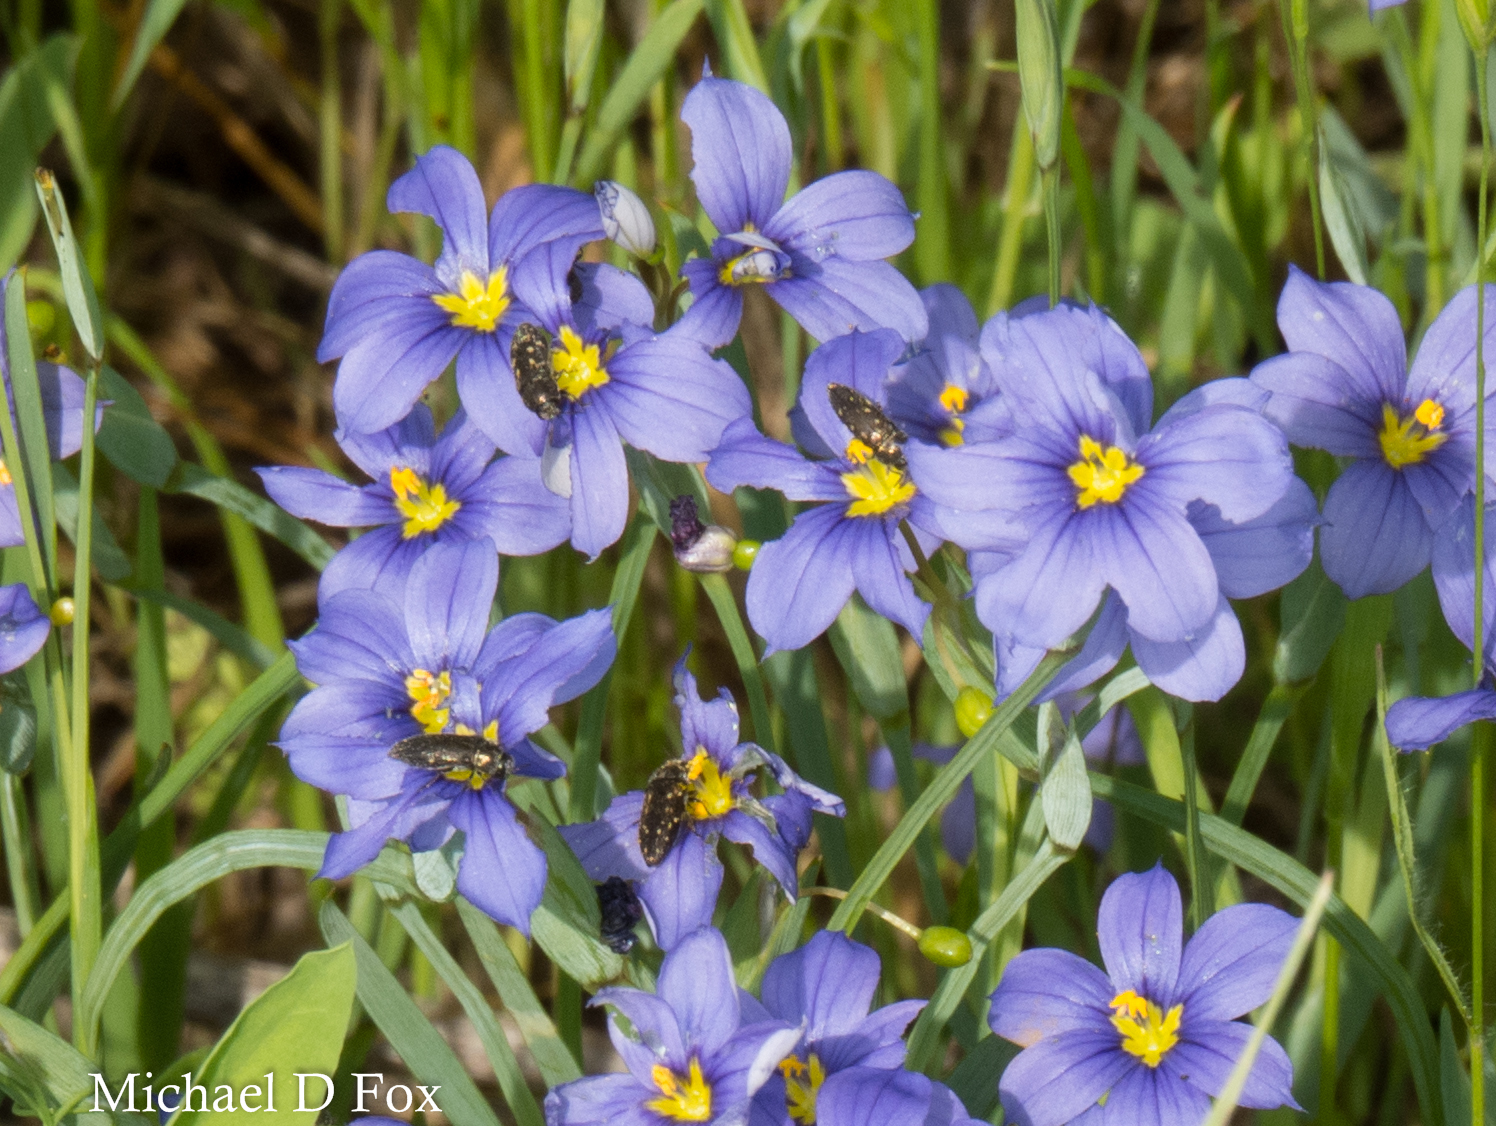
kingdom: Animalia
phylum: Arthropoda
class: Insecta
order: Coleoptera
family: Buprestidae
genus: Acmaeodera
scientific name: Acmaeodera tubulus
